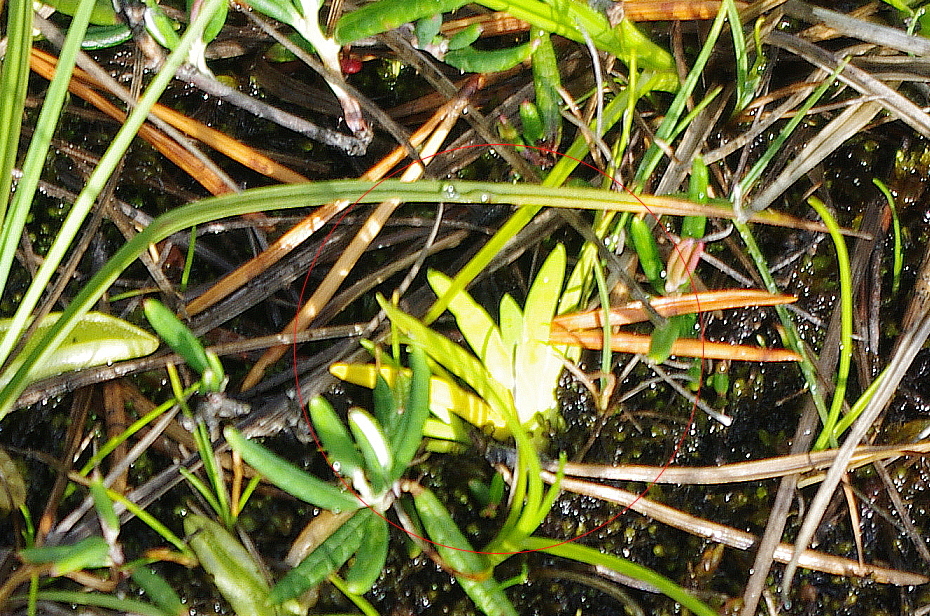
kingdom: Plantae
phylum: Tracheophyta
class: Liliopsida
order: Alismatales
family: Tofieldiaceae
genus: Tofieldia
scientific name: Tofieldia pusilla
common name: Scottish false asphodel
